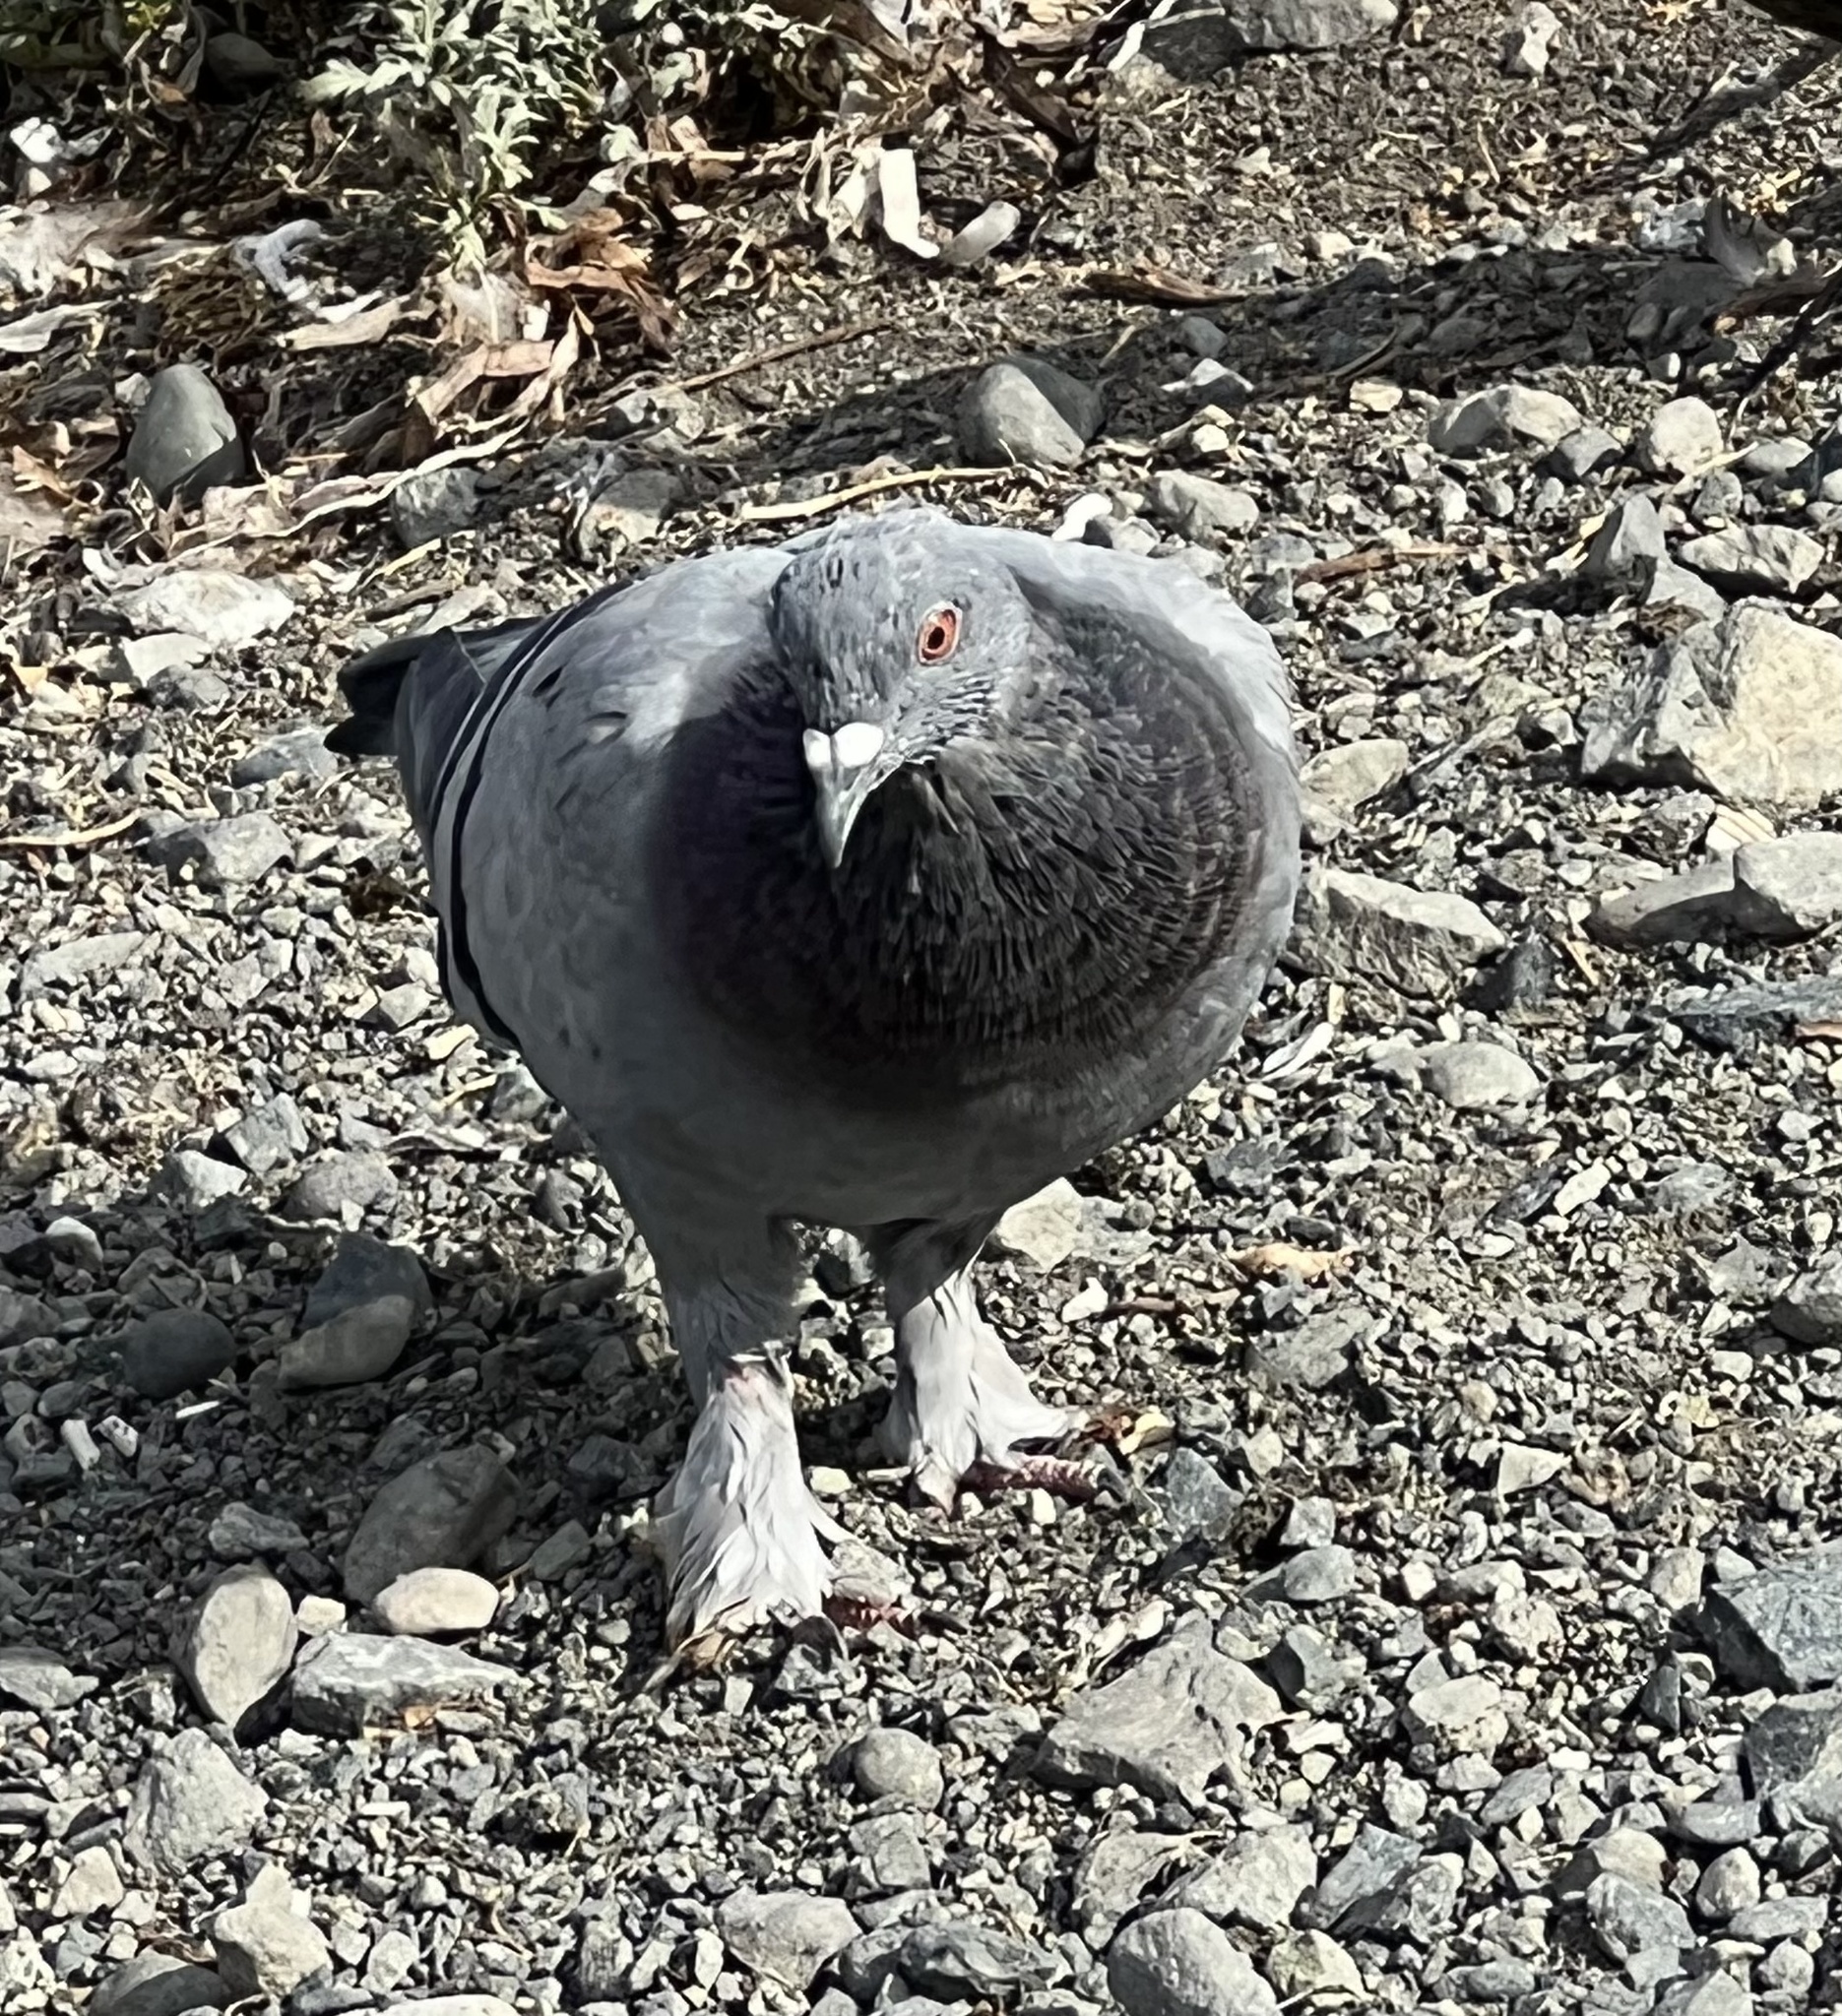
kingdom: Animalia
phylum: Chordata
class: Aves
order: Columbiformes
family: Columbidae
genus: Columba
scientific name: Columba livia
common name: Rock pigeon
